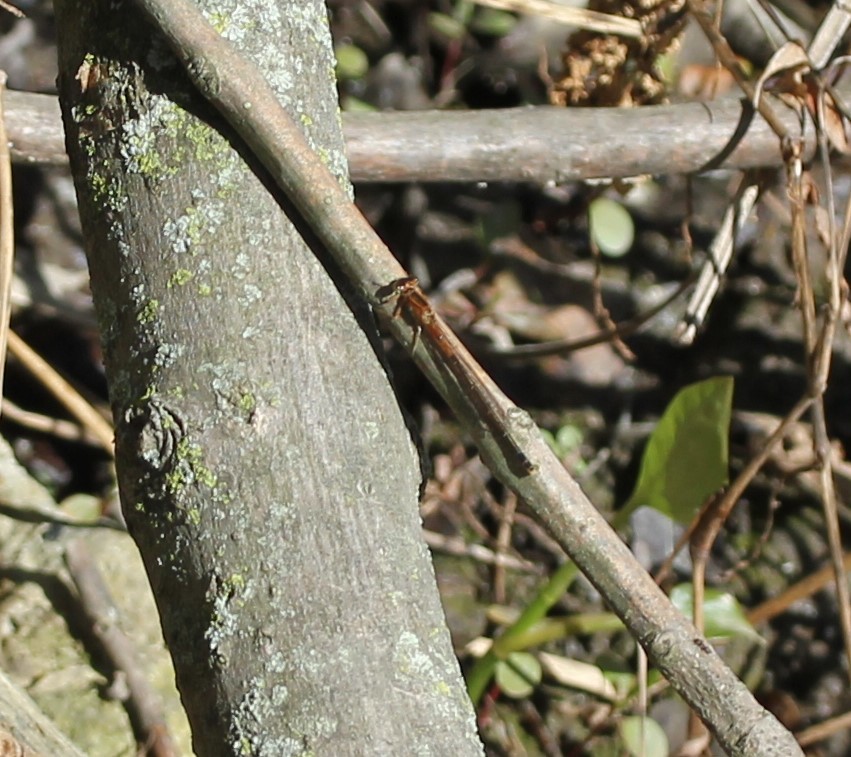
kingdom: Animalia
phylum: Arthropoda
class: Insecta
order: Odonata
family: Coenagrionidae
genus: Ischnura
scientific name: Ischnura verticalis
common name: Eastern forktail
